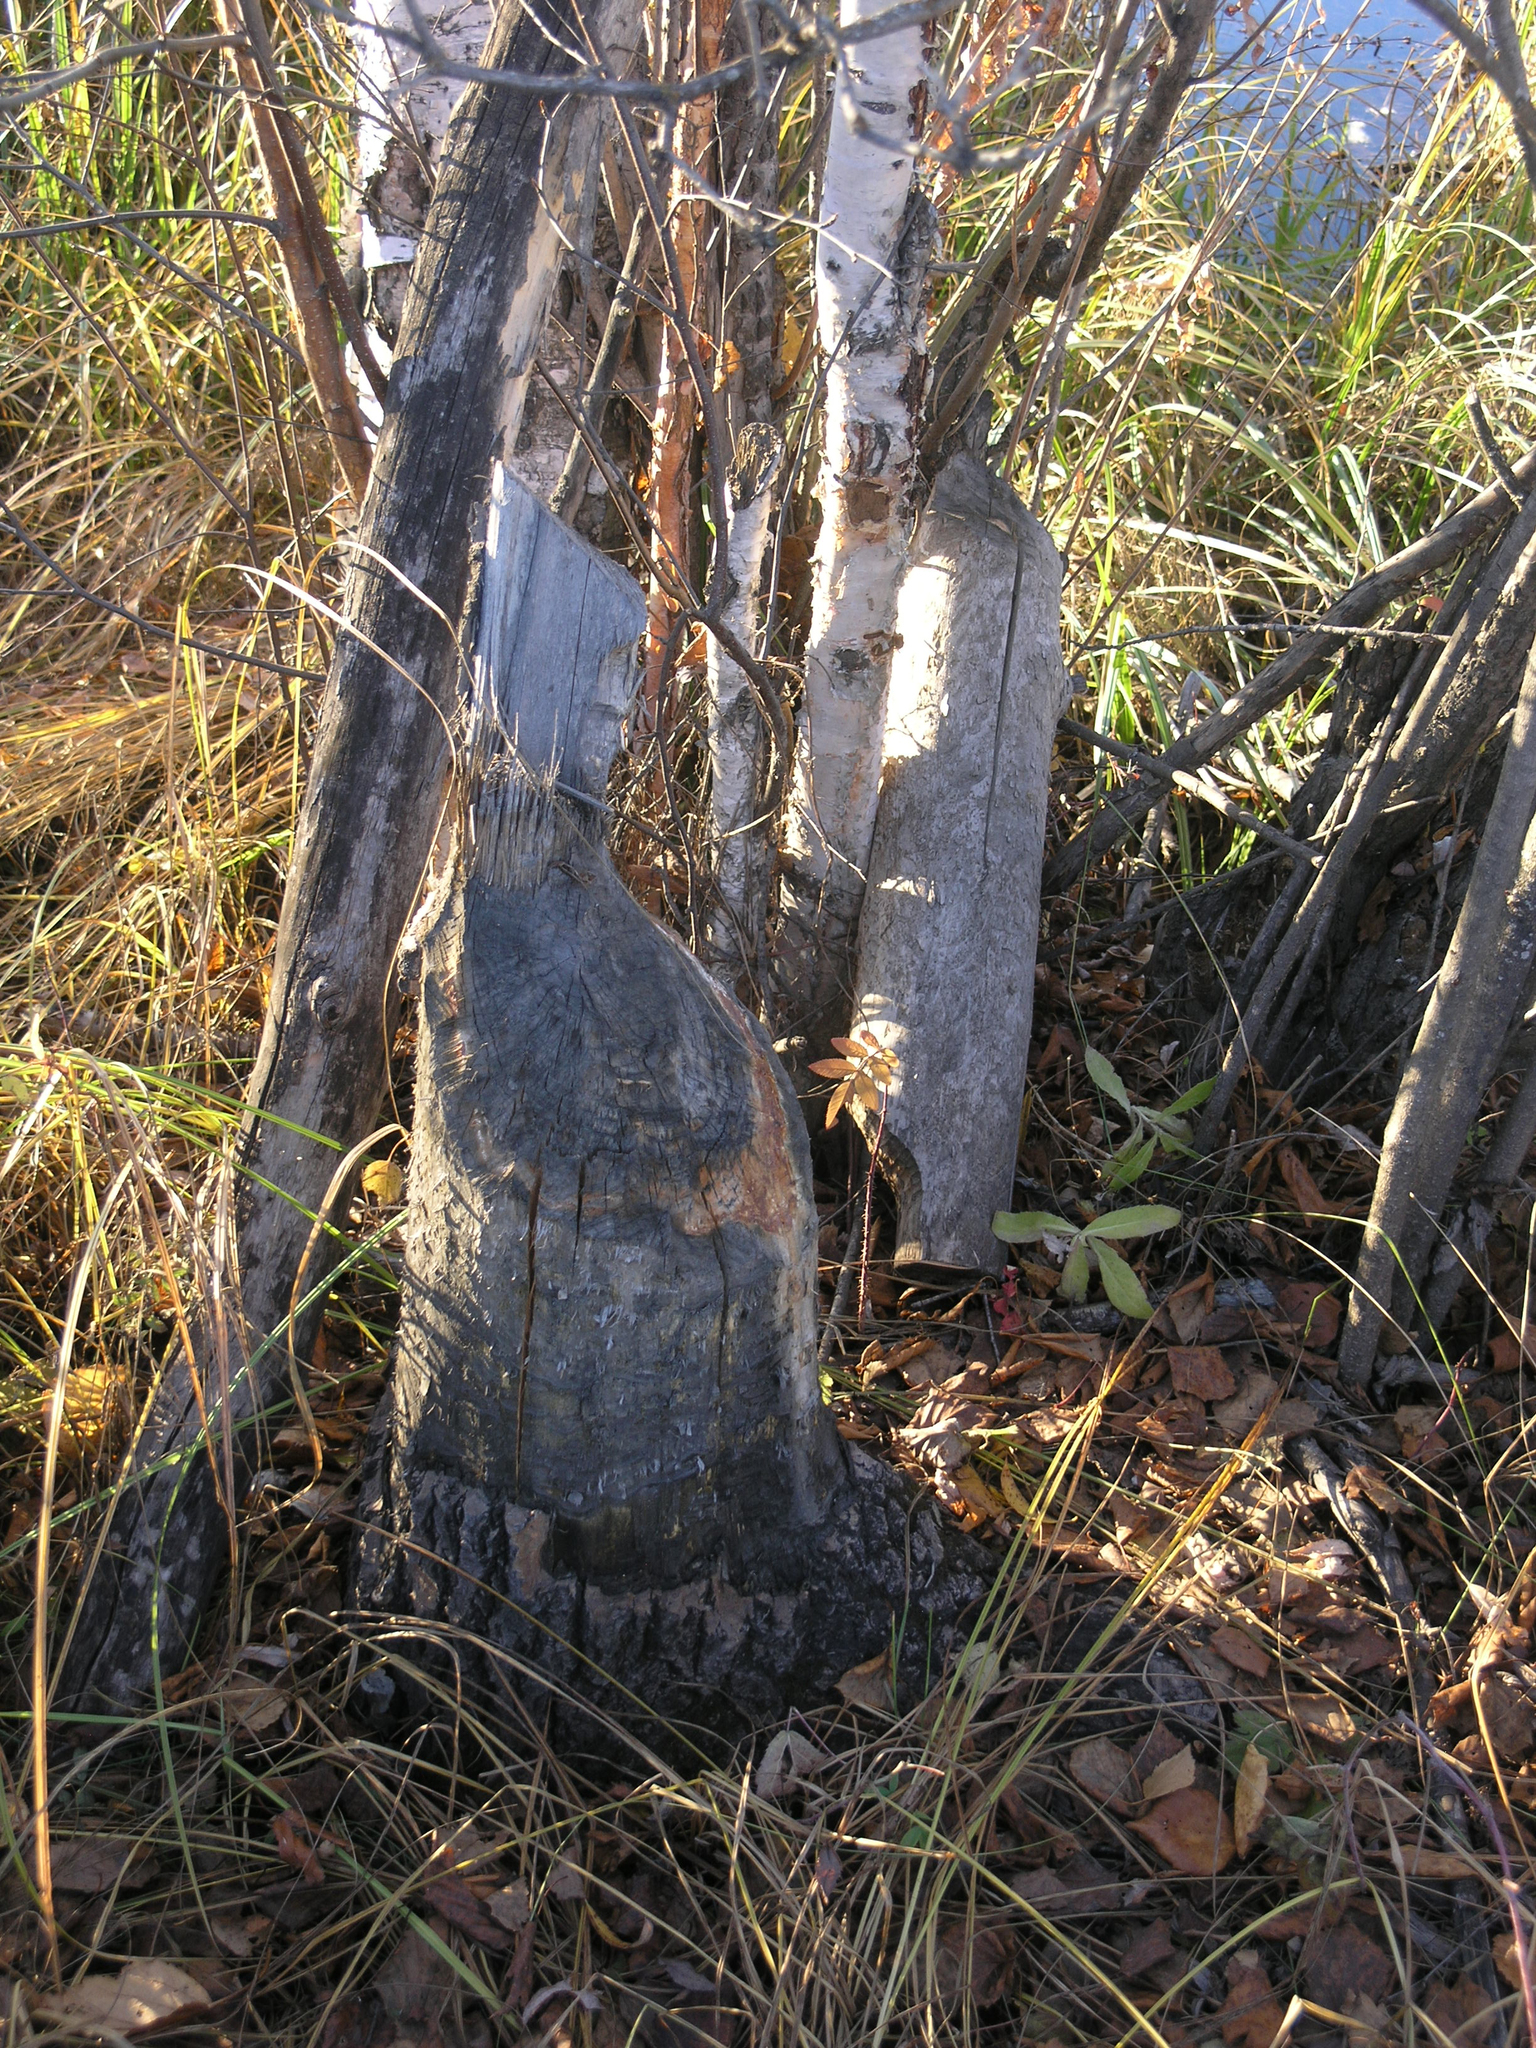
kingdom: Animalia
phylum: Chordata
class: Mammalia
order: Rodentia
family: Castoridae
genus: Castor
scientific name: Castor fiber
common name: Eurasian beaver
